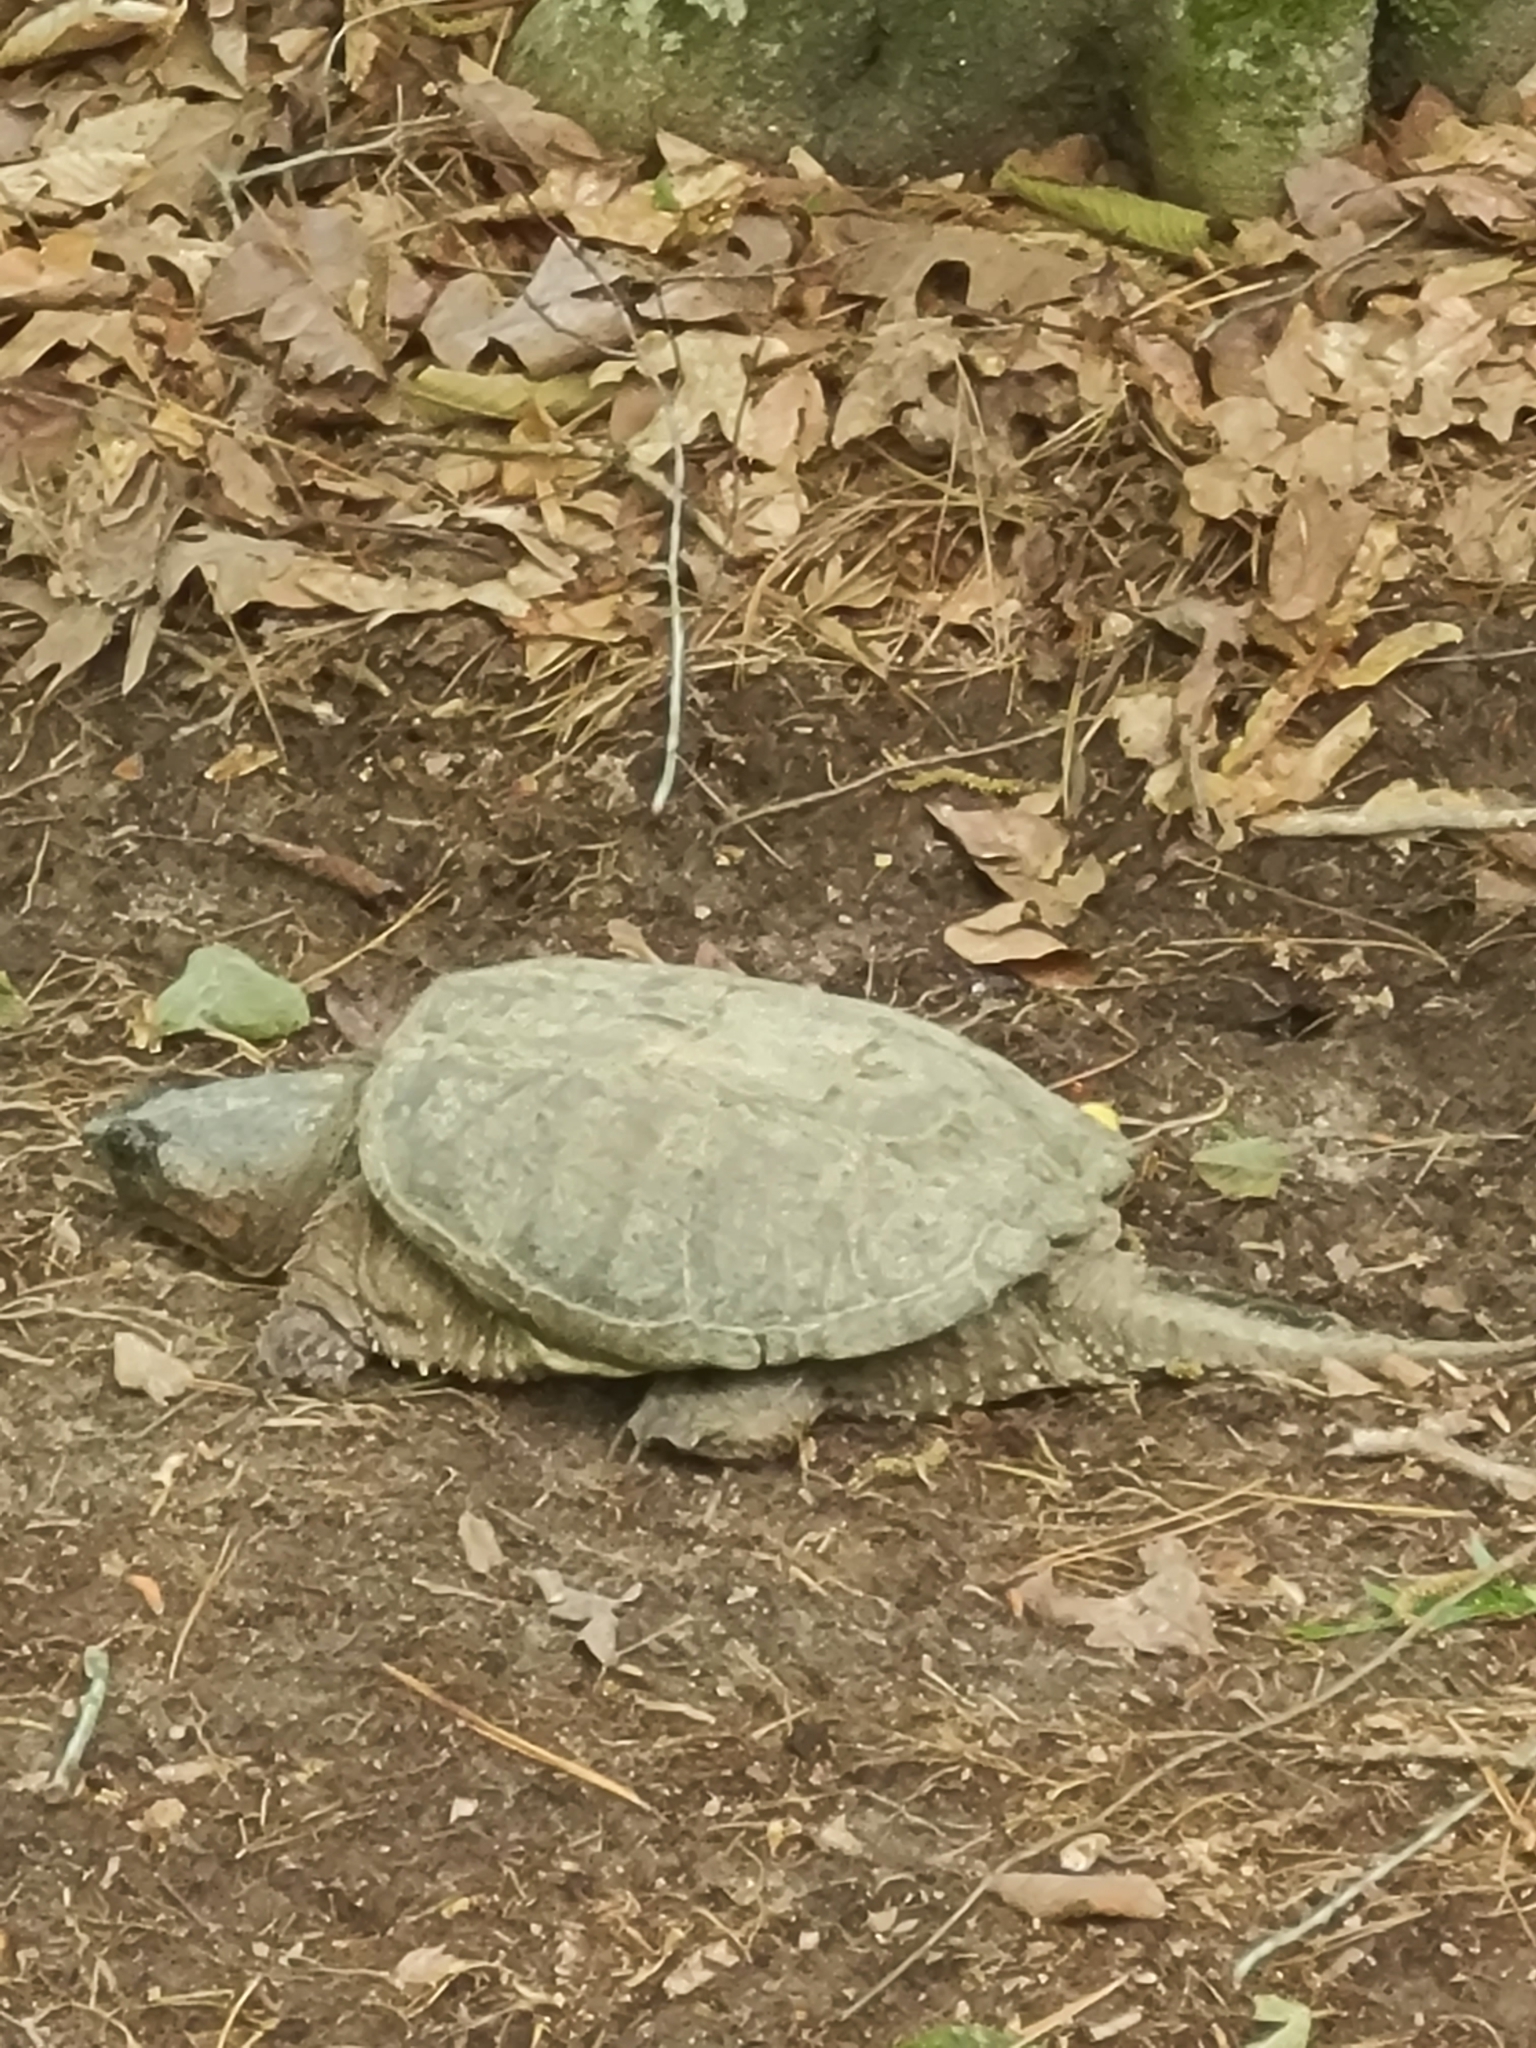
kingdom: Animalia
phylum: Chordata
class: Testudines
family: Chelydridae
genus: Chelydra
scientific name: Chelydra serpentina
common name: Common snapping turtle
